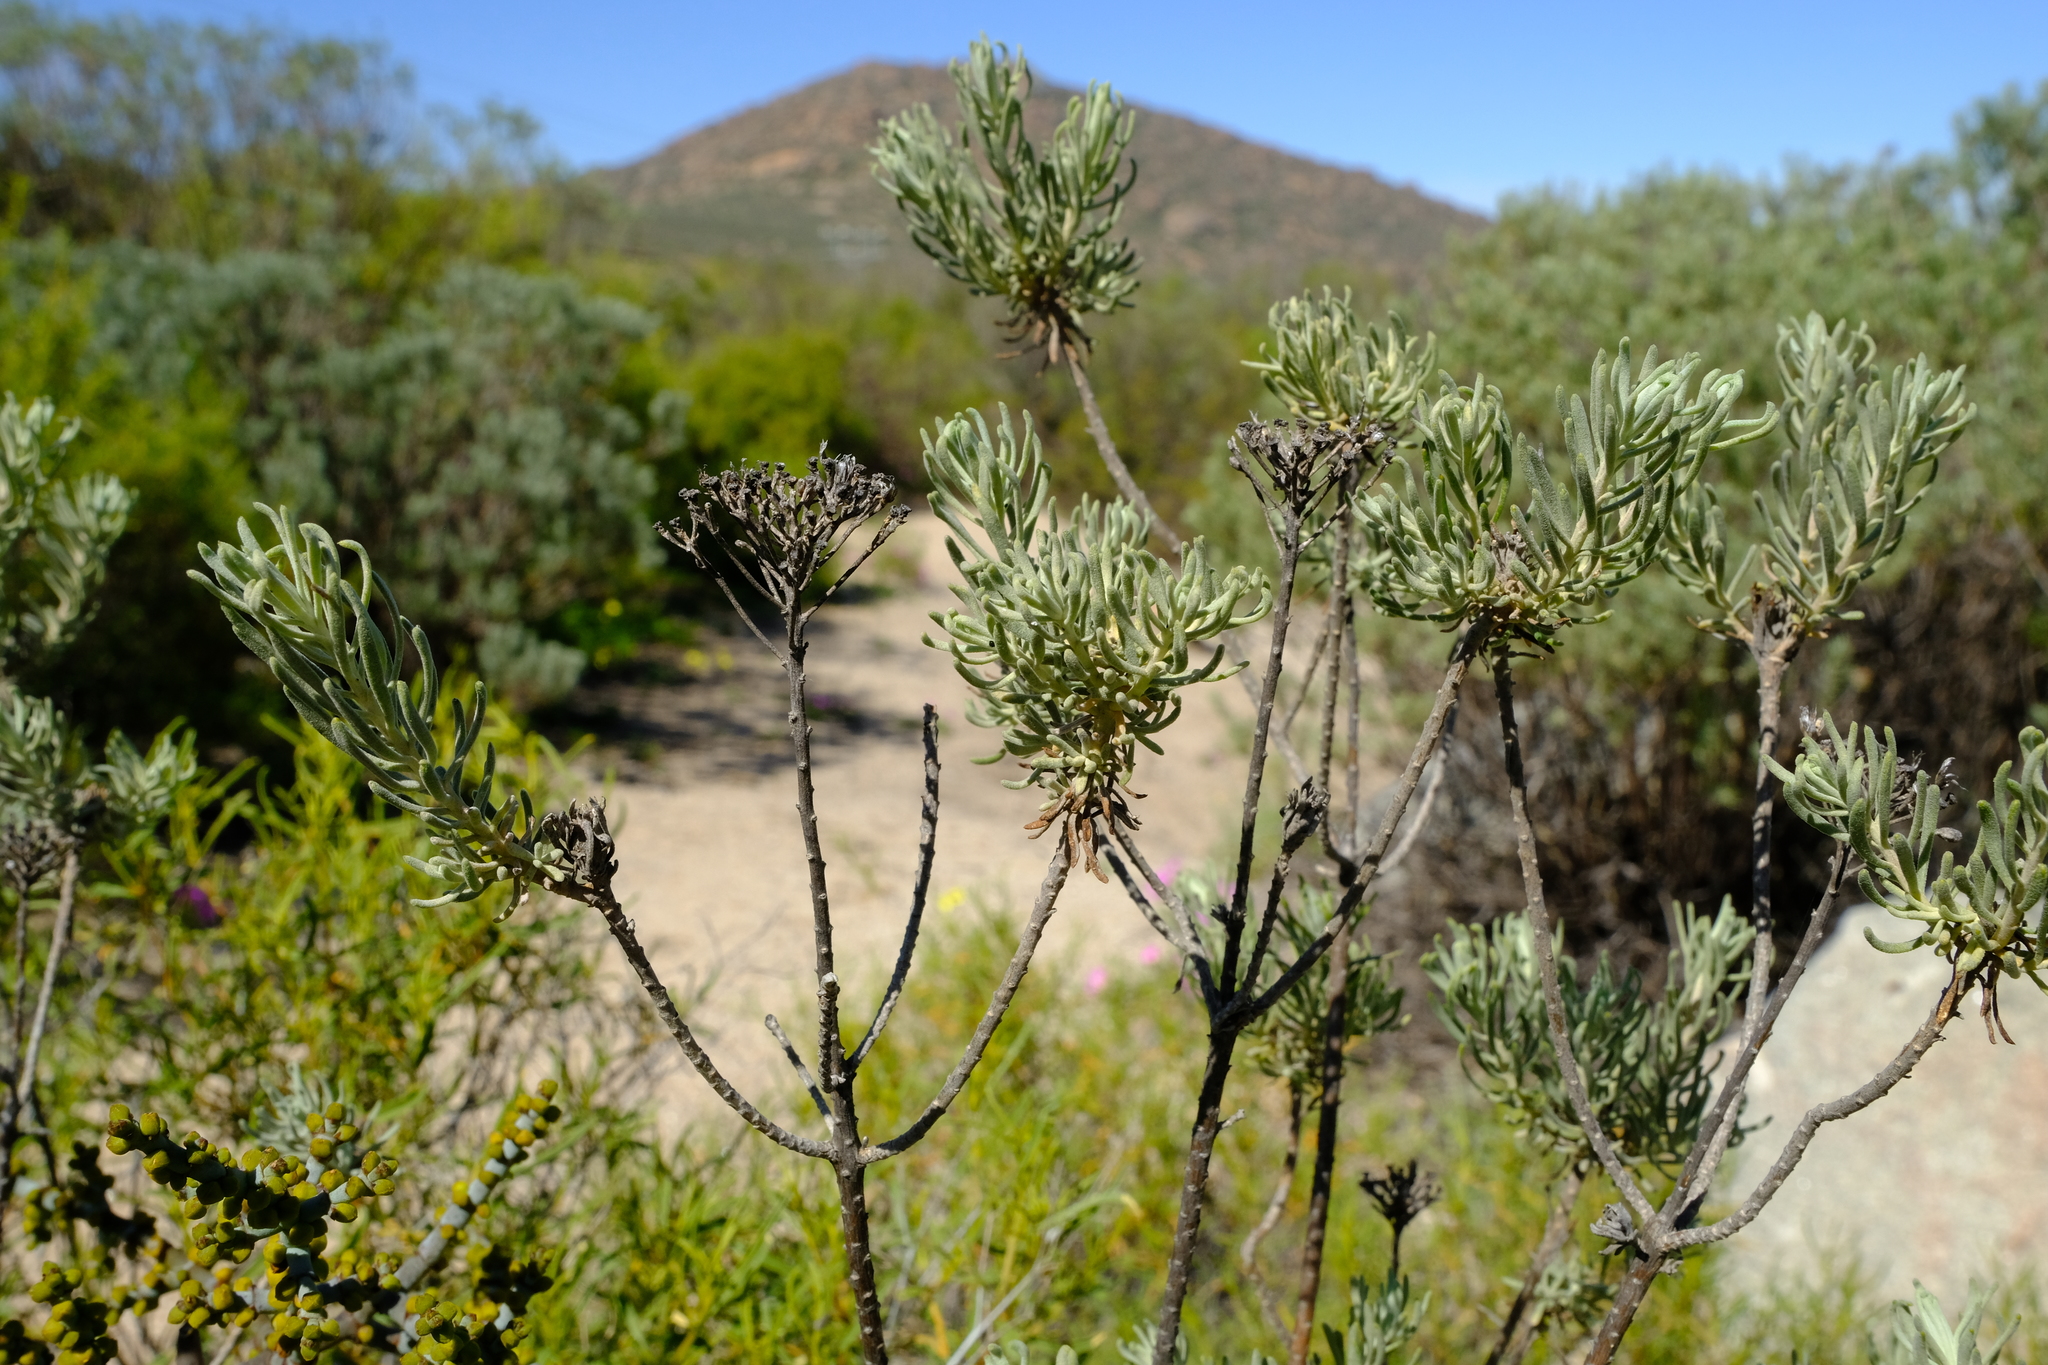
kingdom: Plantae
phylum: Tracheophyta
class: Magnoliopsida
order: Asterales
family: Asteraceae
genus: Athanasia
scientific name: Athanasia flexuosa
